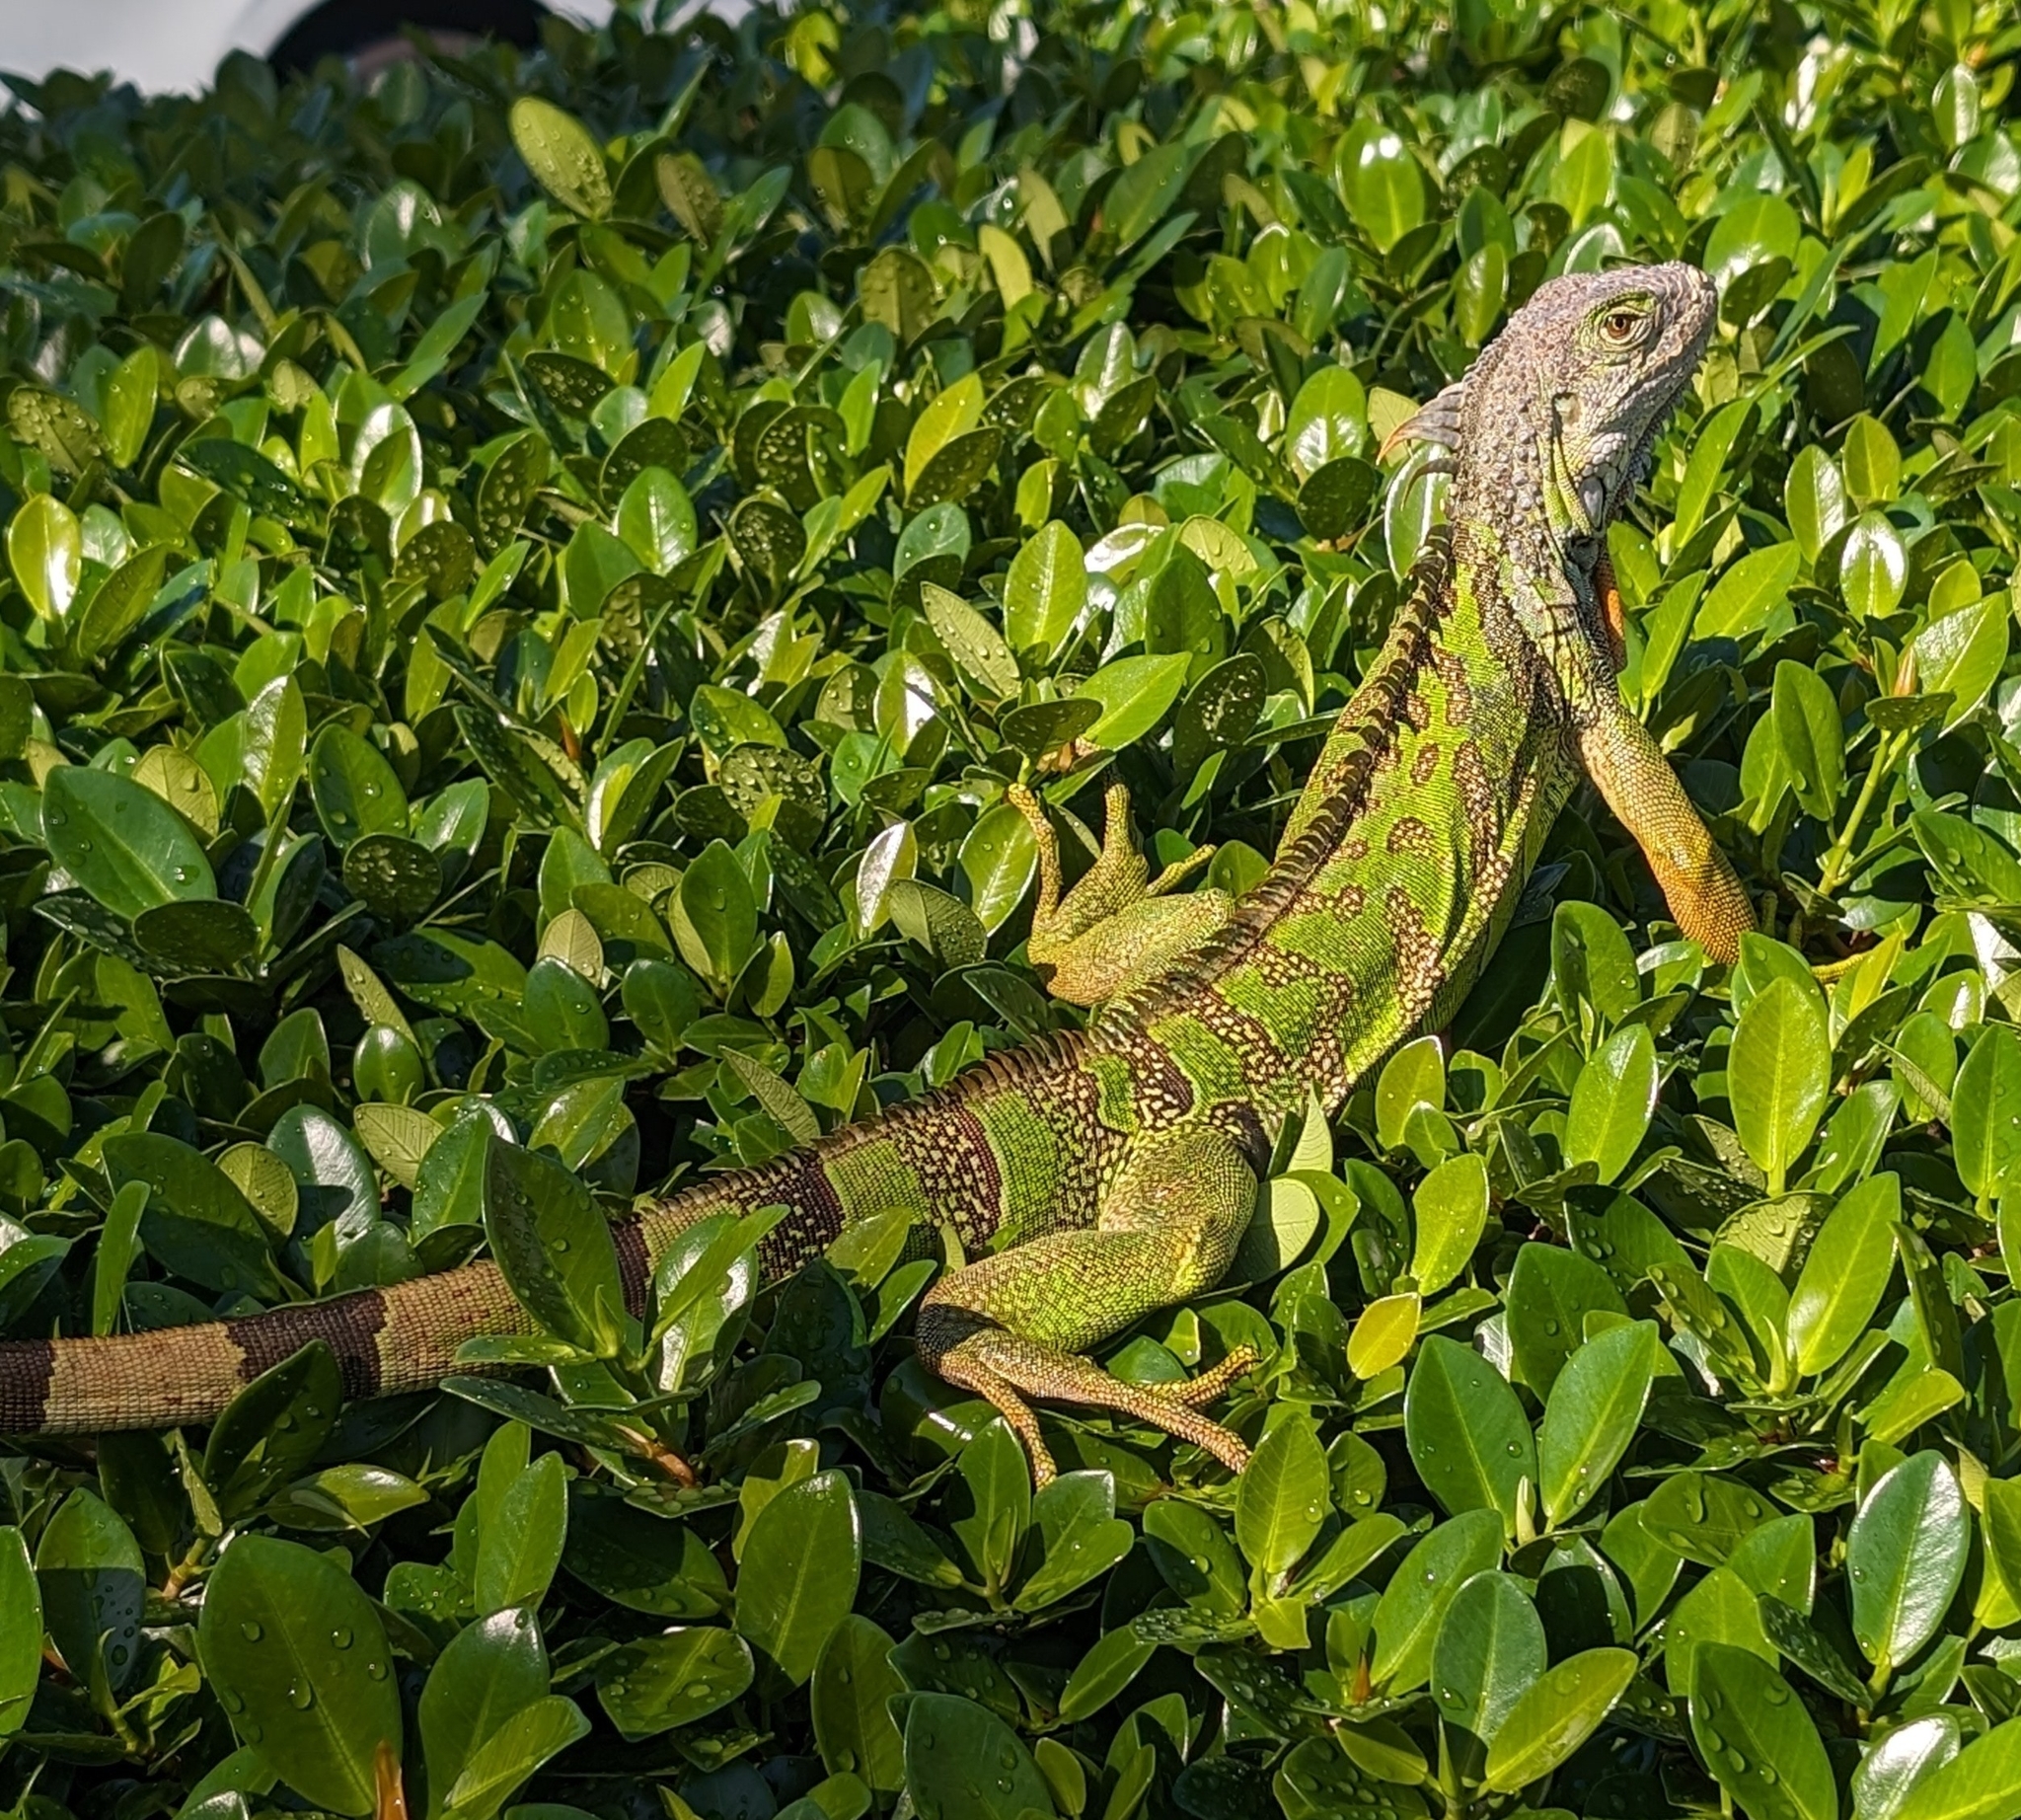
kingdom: Animalia
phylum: Chordata
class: Squamata
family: Iguanidae
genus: Iguana
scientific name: Iguana iguana
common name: Green iguana
